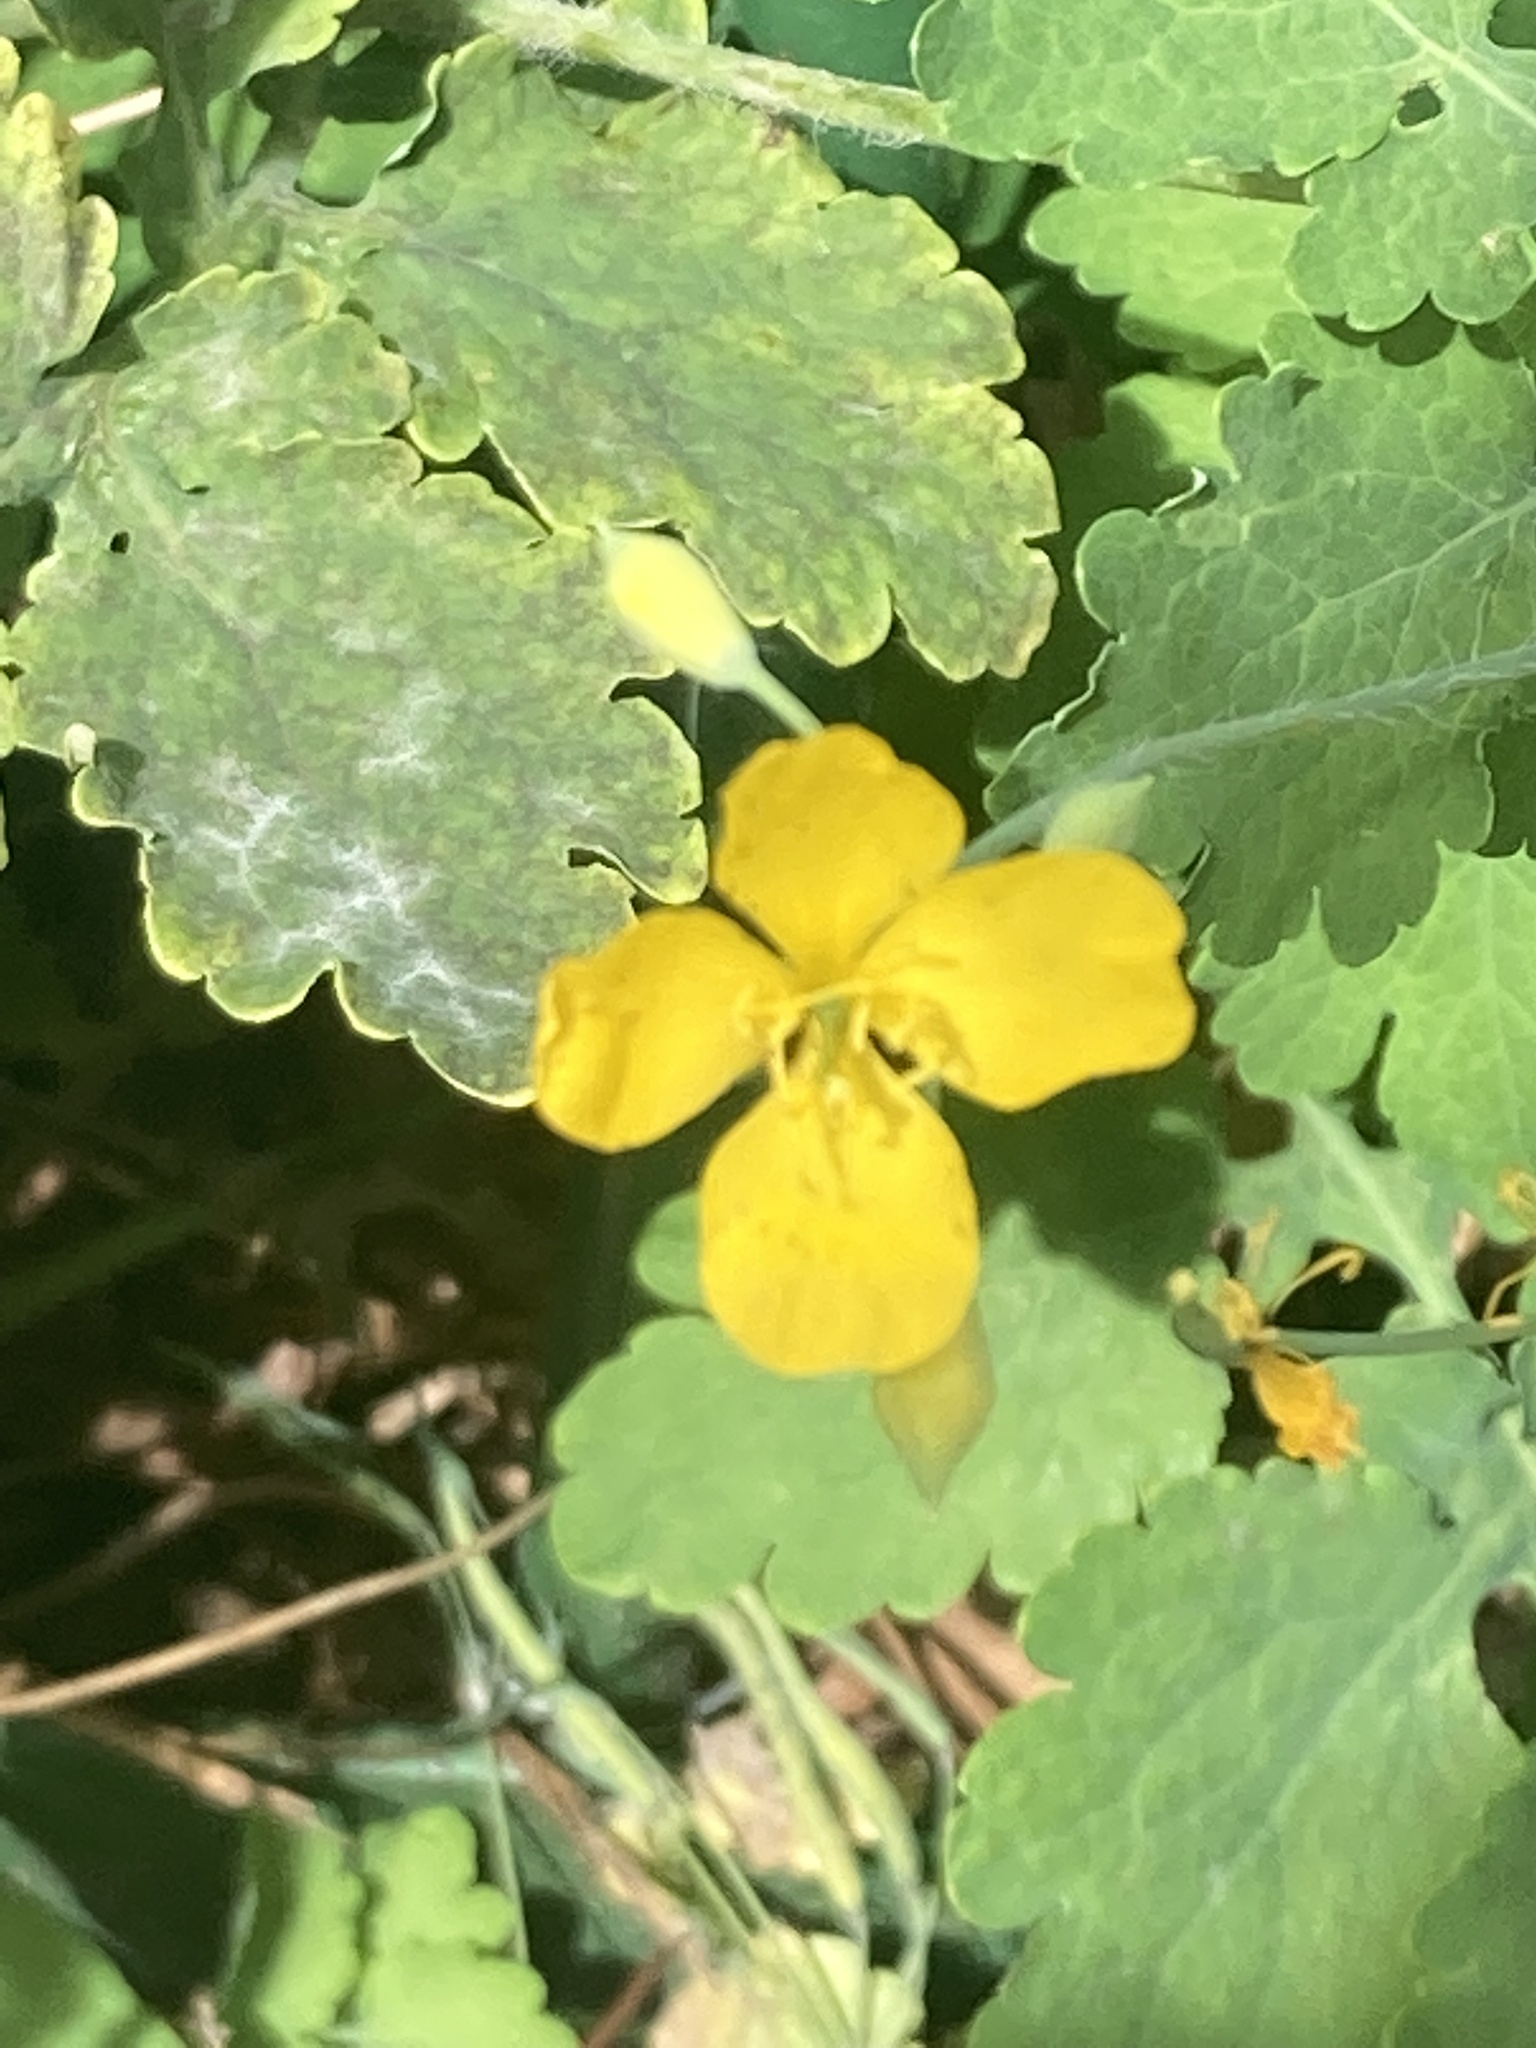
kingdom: Plantae
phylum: Tracheophyta
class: Magnoliopsida
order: Ranunculales
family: Papaveraceae
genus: Chelidonium
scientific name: Chelidonium majus
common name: Greater celandine
